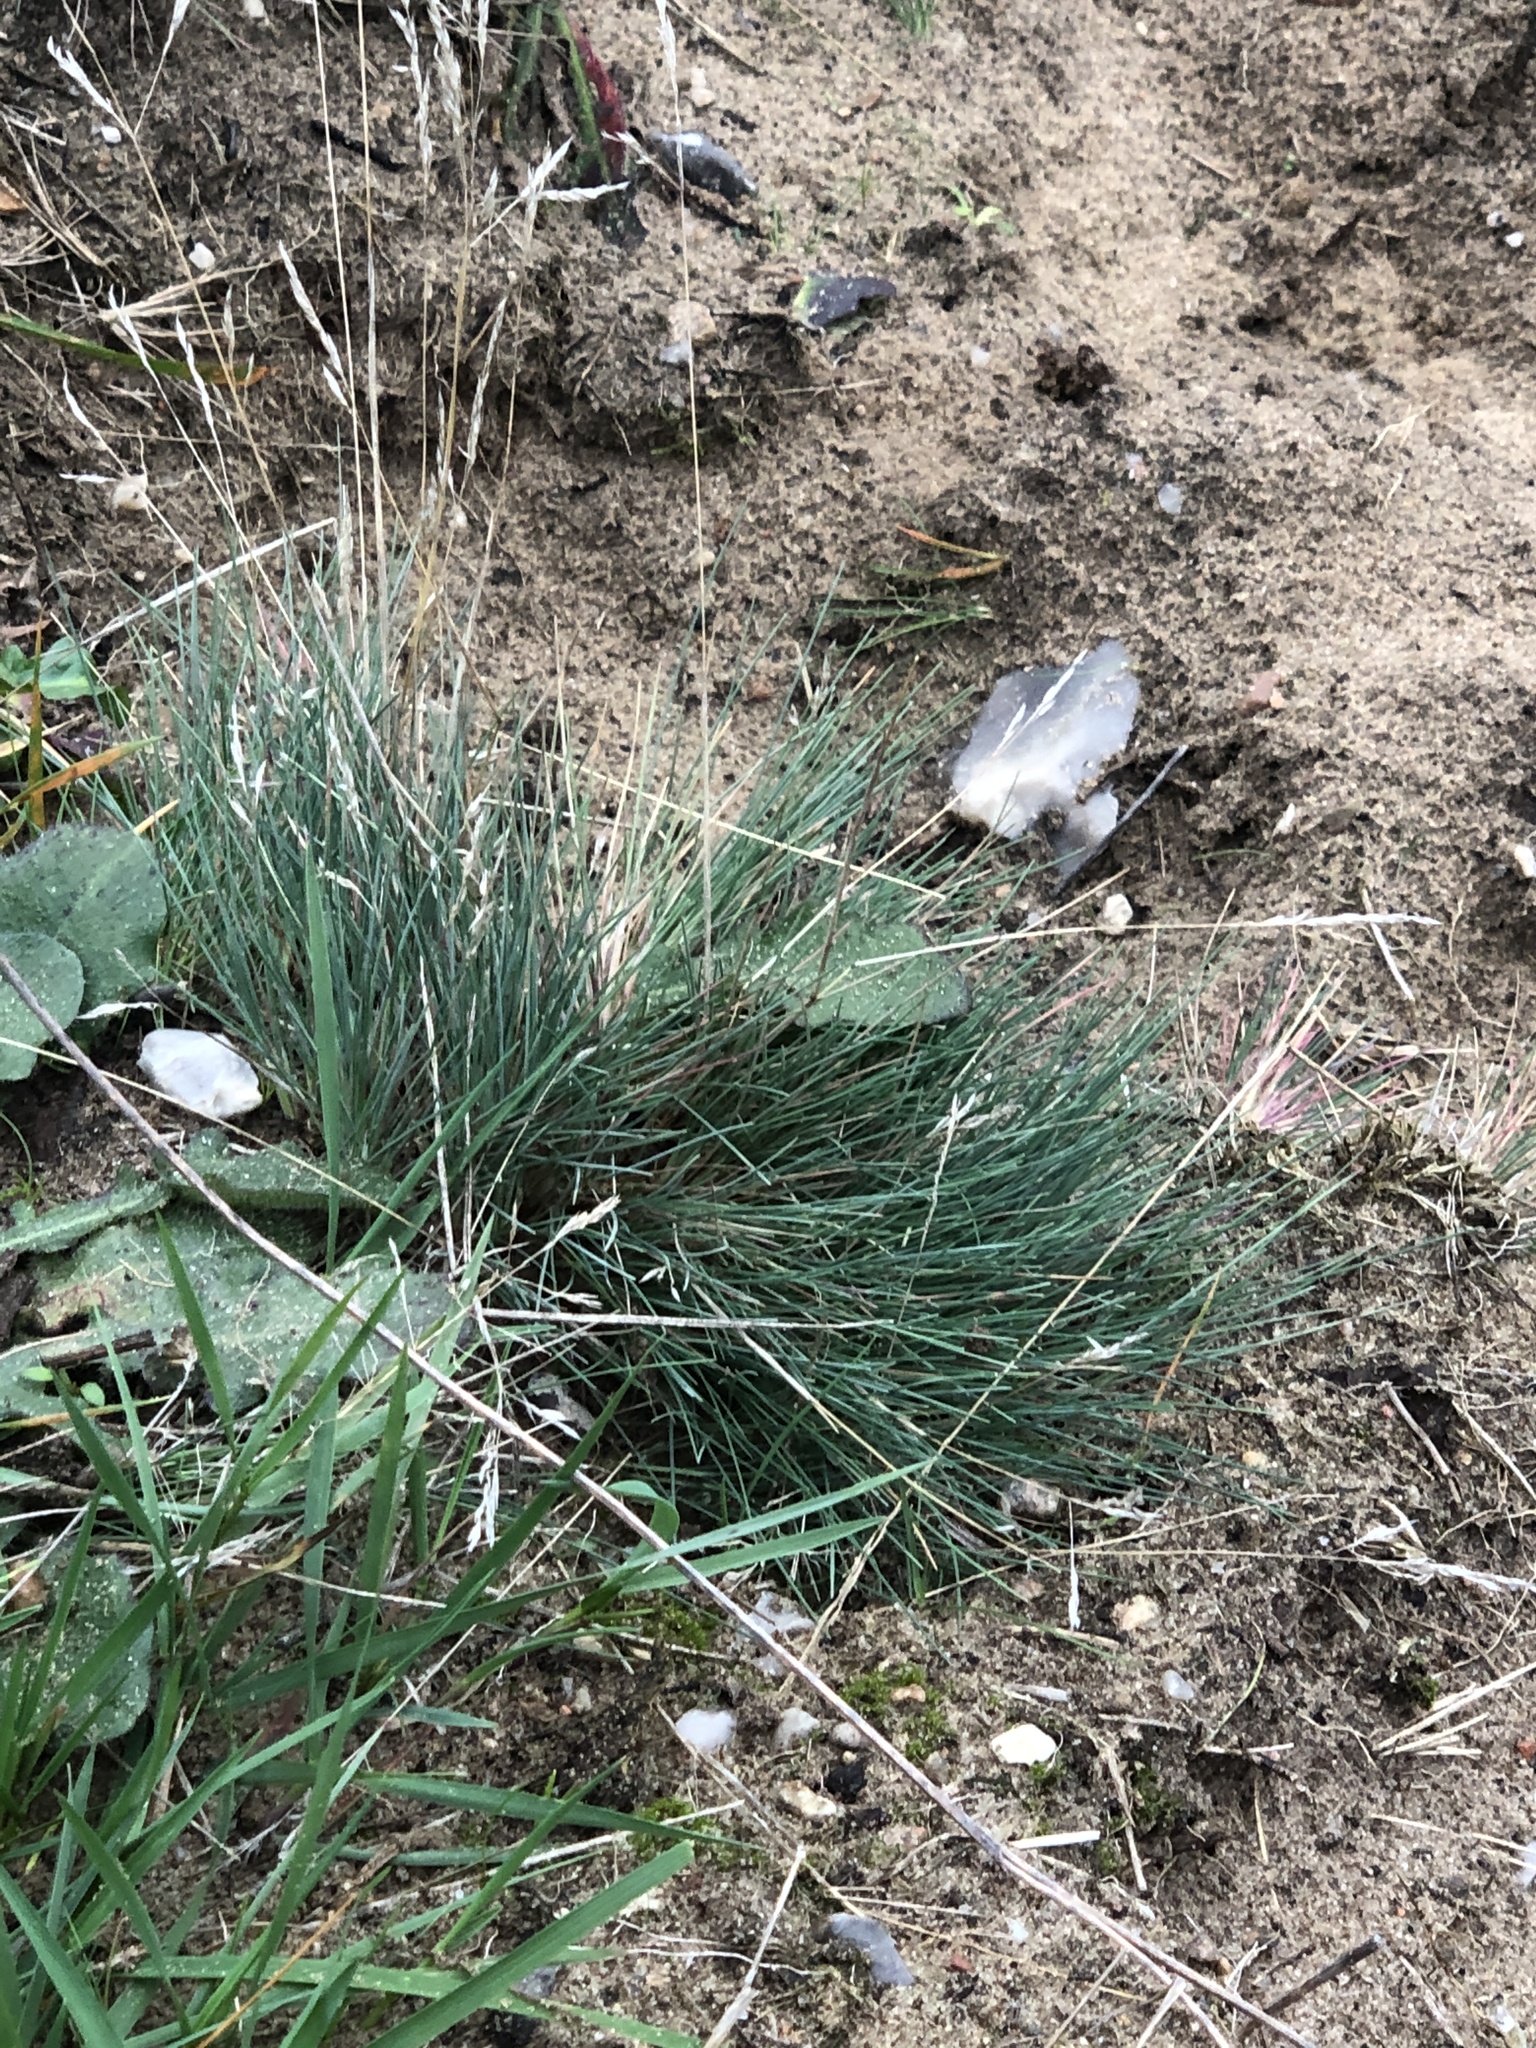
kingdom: Plantae
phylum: Tracheophyta
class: Liliopsida
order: Poales
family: Poaceae
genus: Corynephorus
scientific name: Corynephorus canescens
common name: Grey hair-grass
